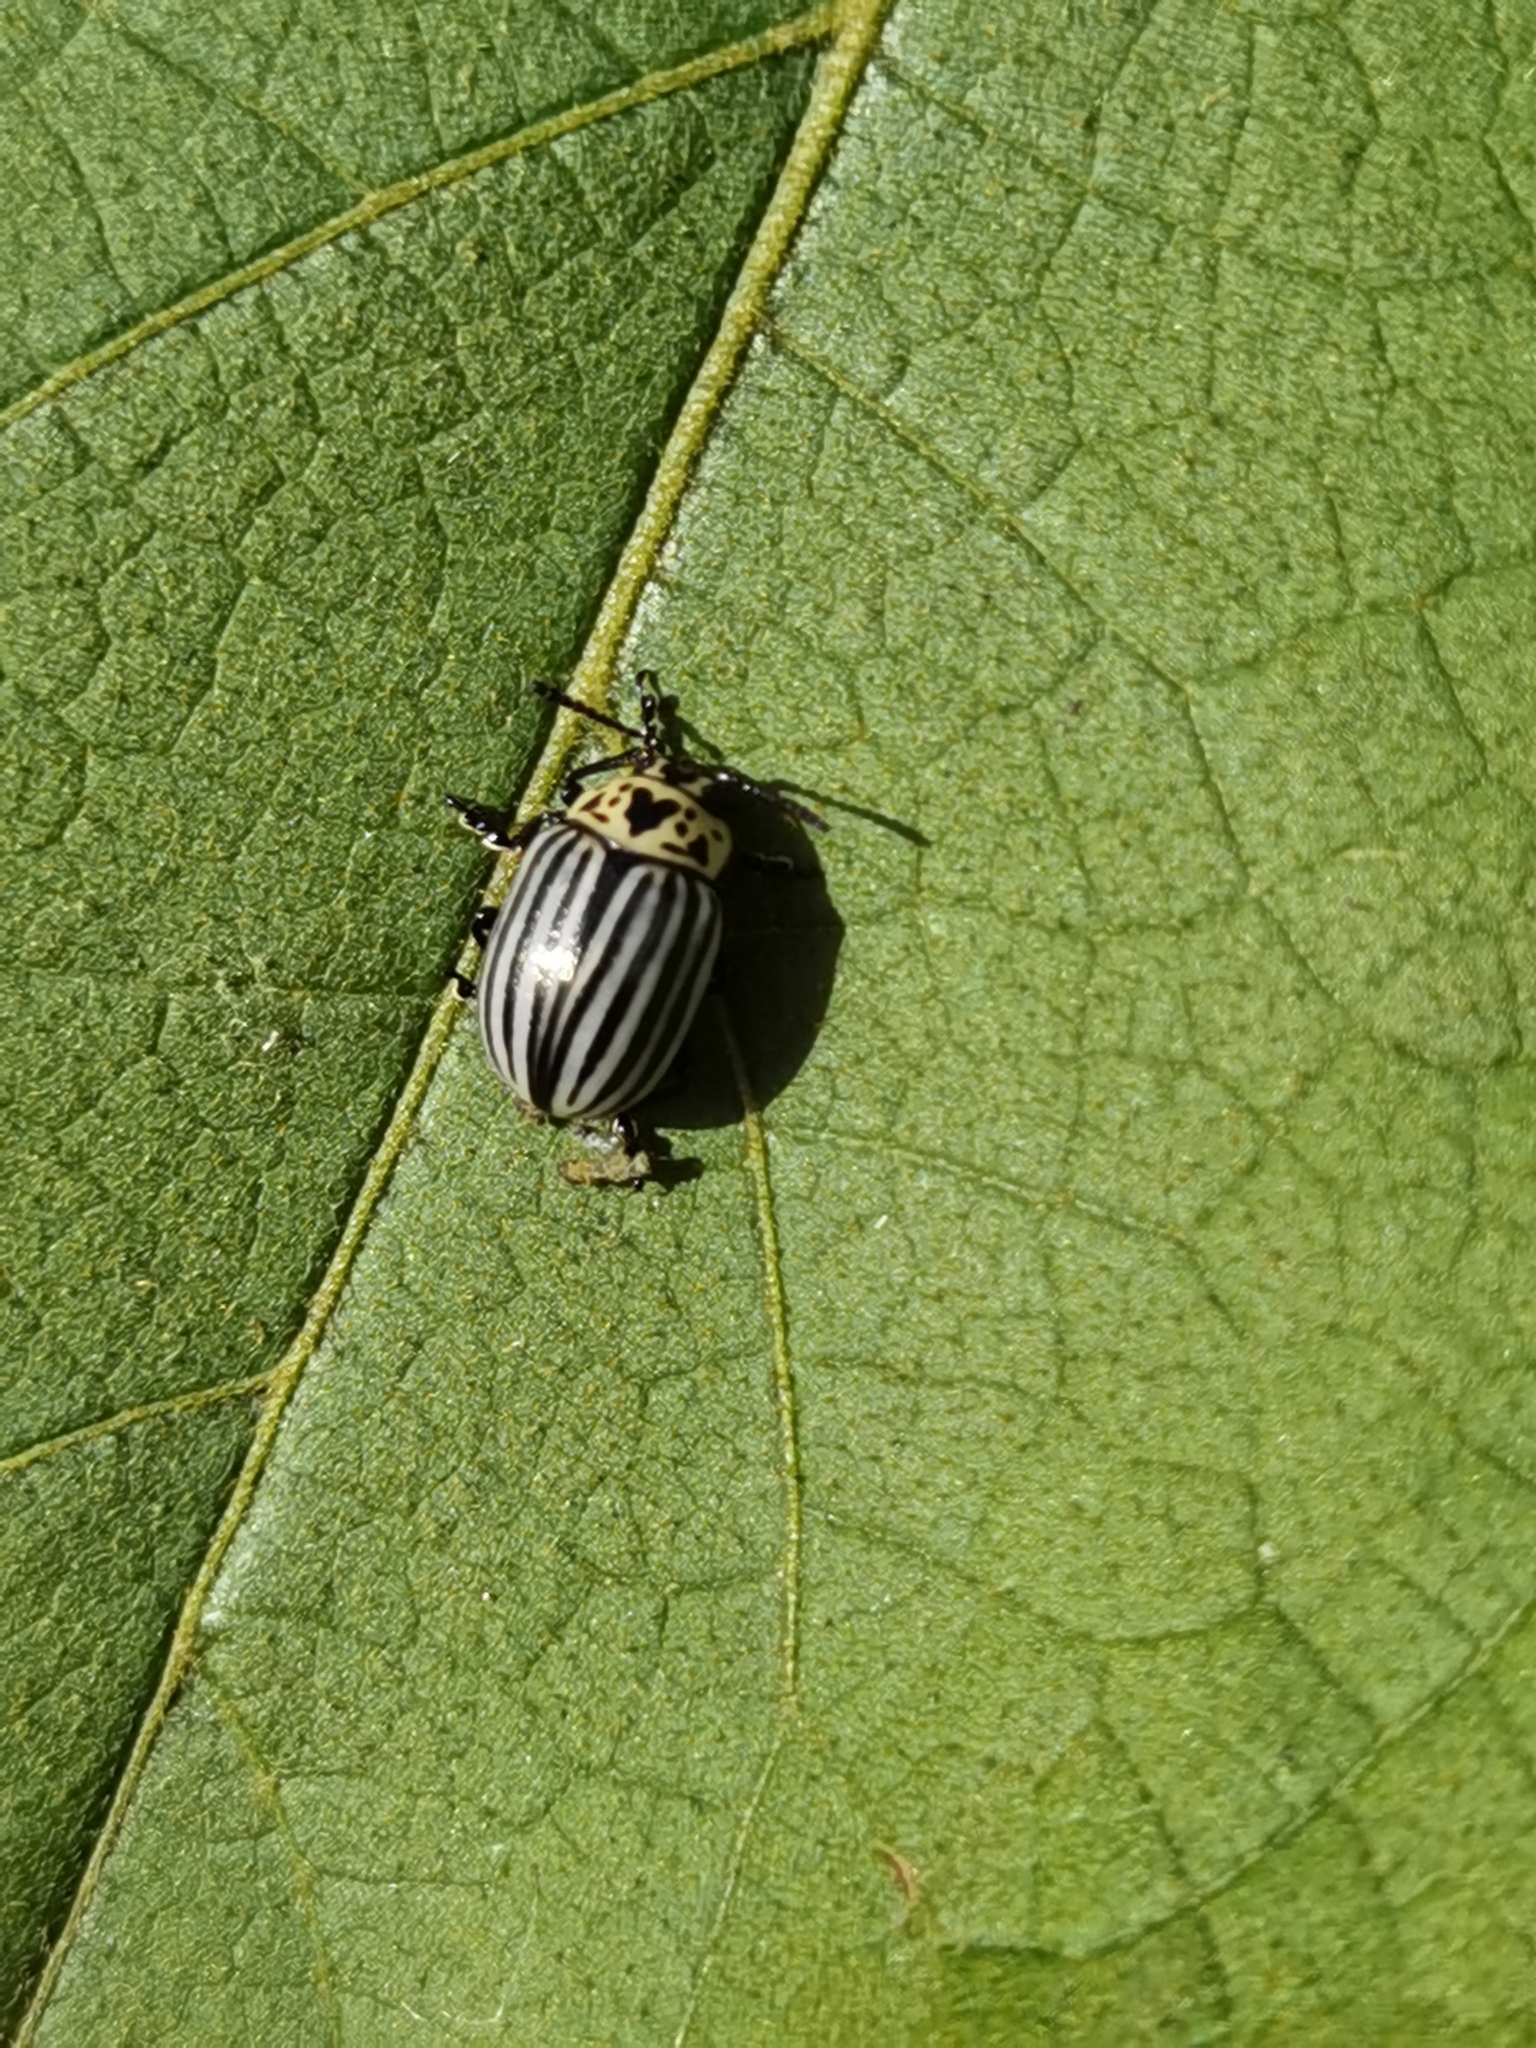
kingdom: Animalia
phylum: Arthropoda
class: Insecta
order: Coleoptera
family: Chrysomelidae
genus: Leptinotarsa
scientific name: Leptinotarsa
